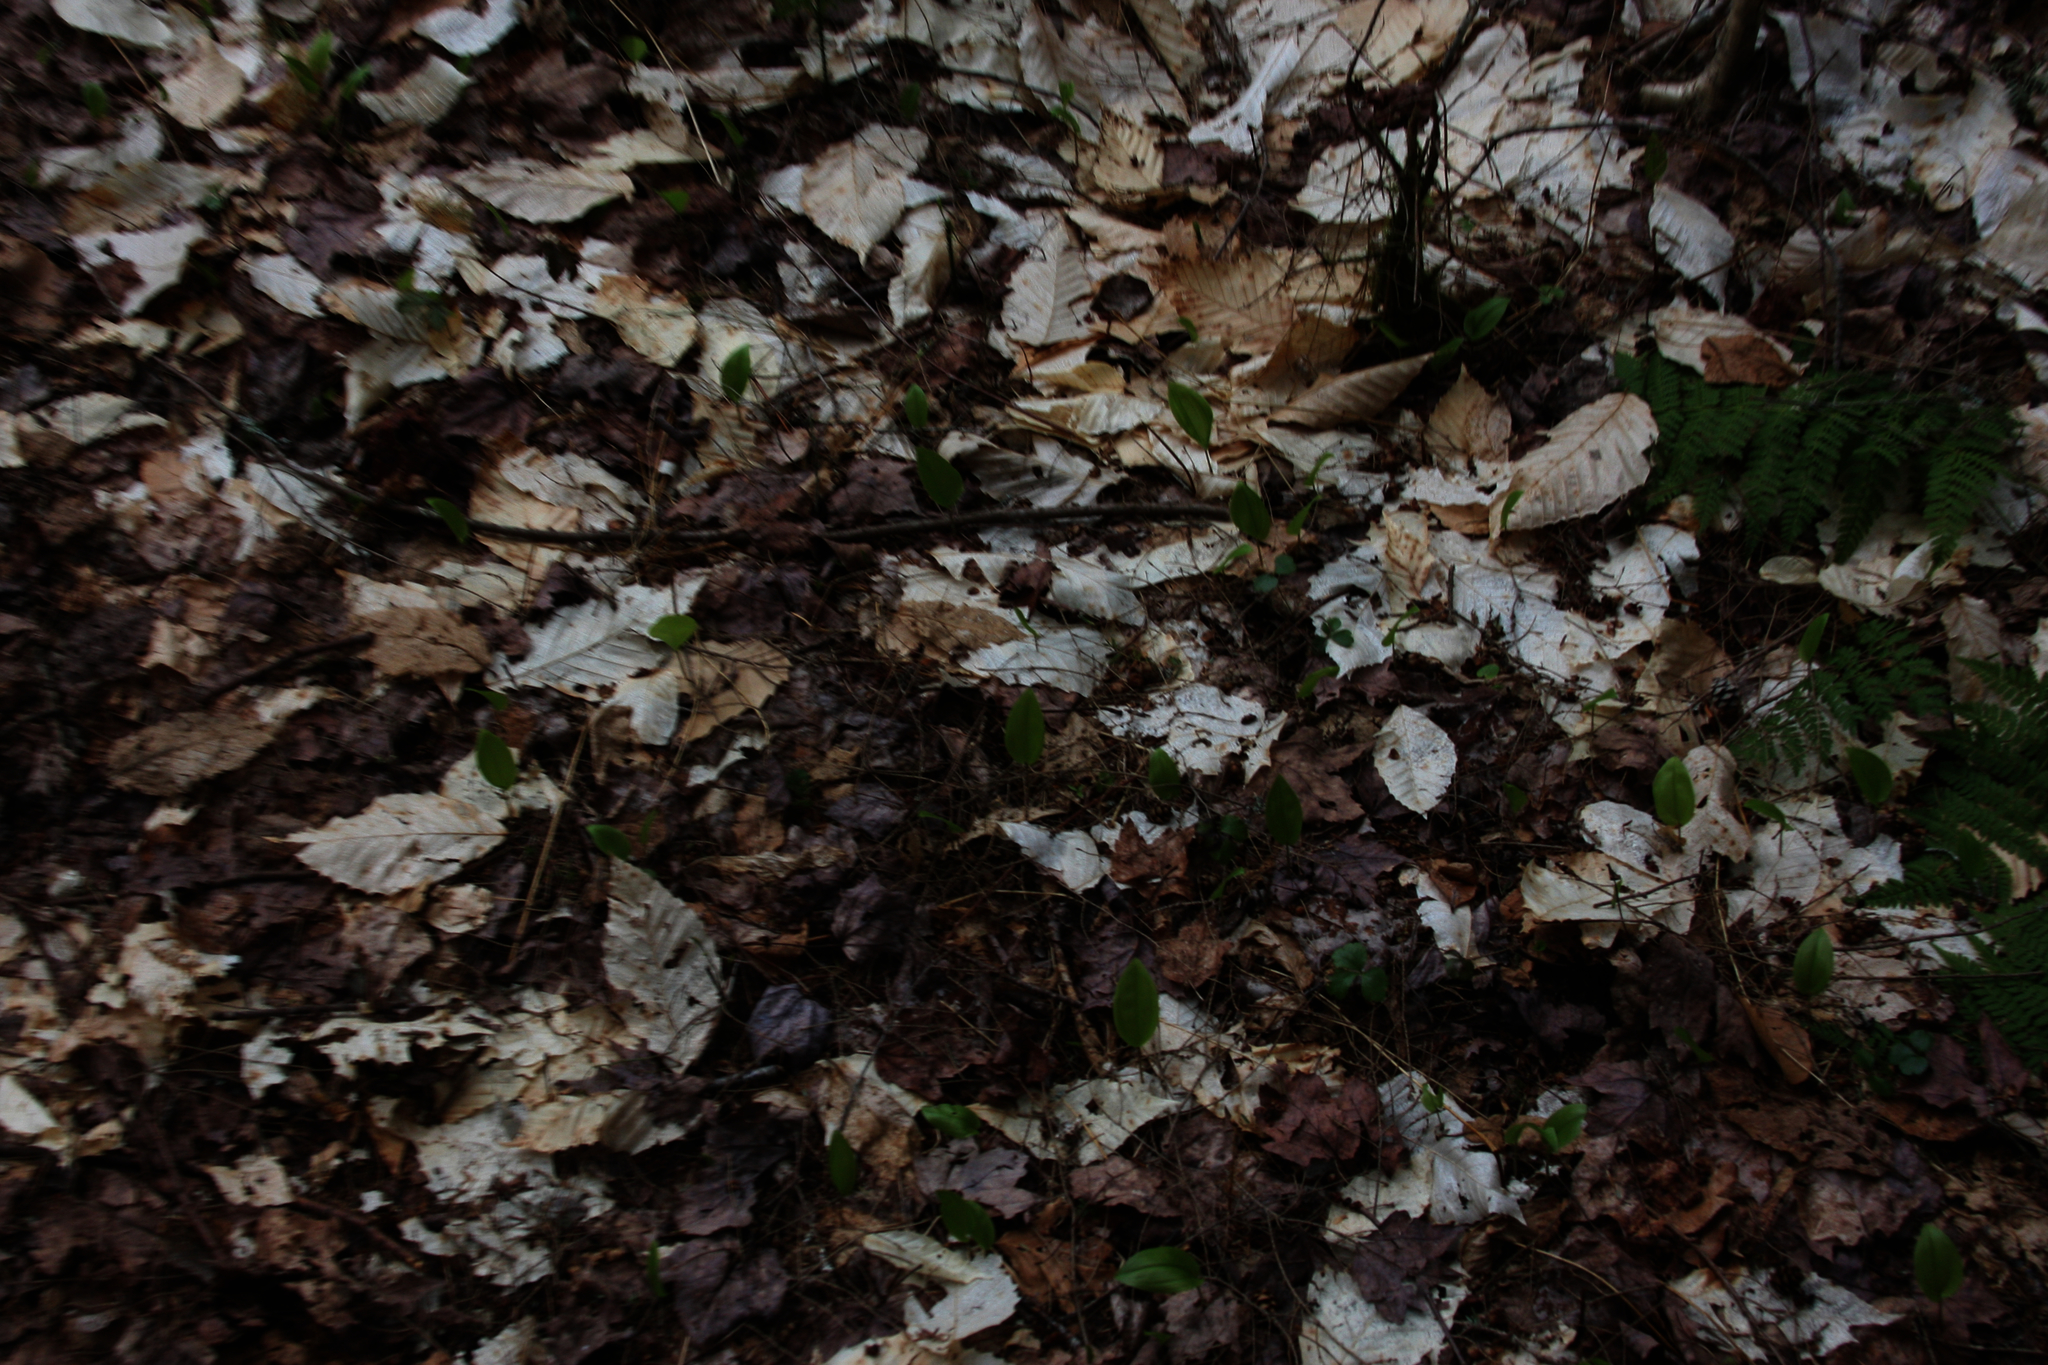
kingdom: Plantae
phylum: Tracheophyta
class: Liliopsida
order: Asparagales
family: Asparagaceae
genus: Maianthemum
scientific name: Maianthemum canadense
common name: False lily-of-the-valley
